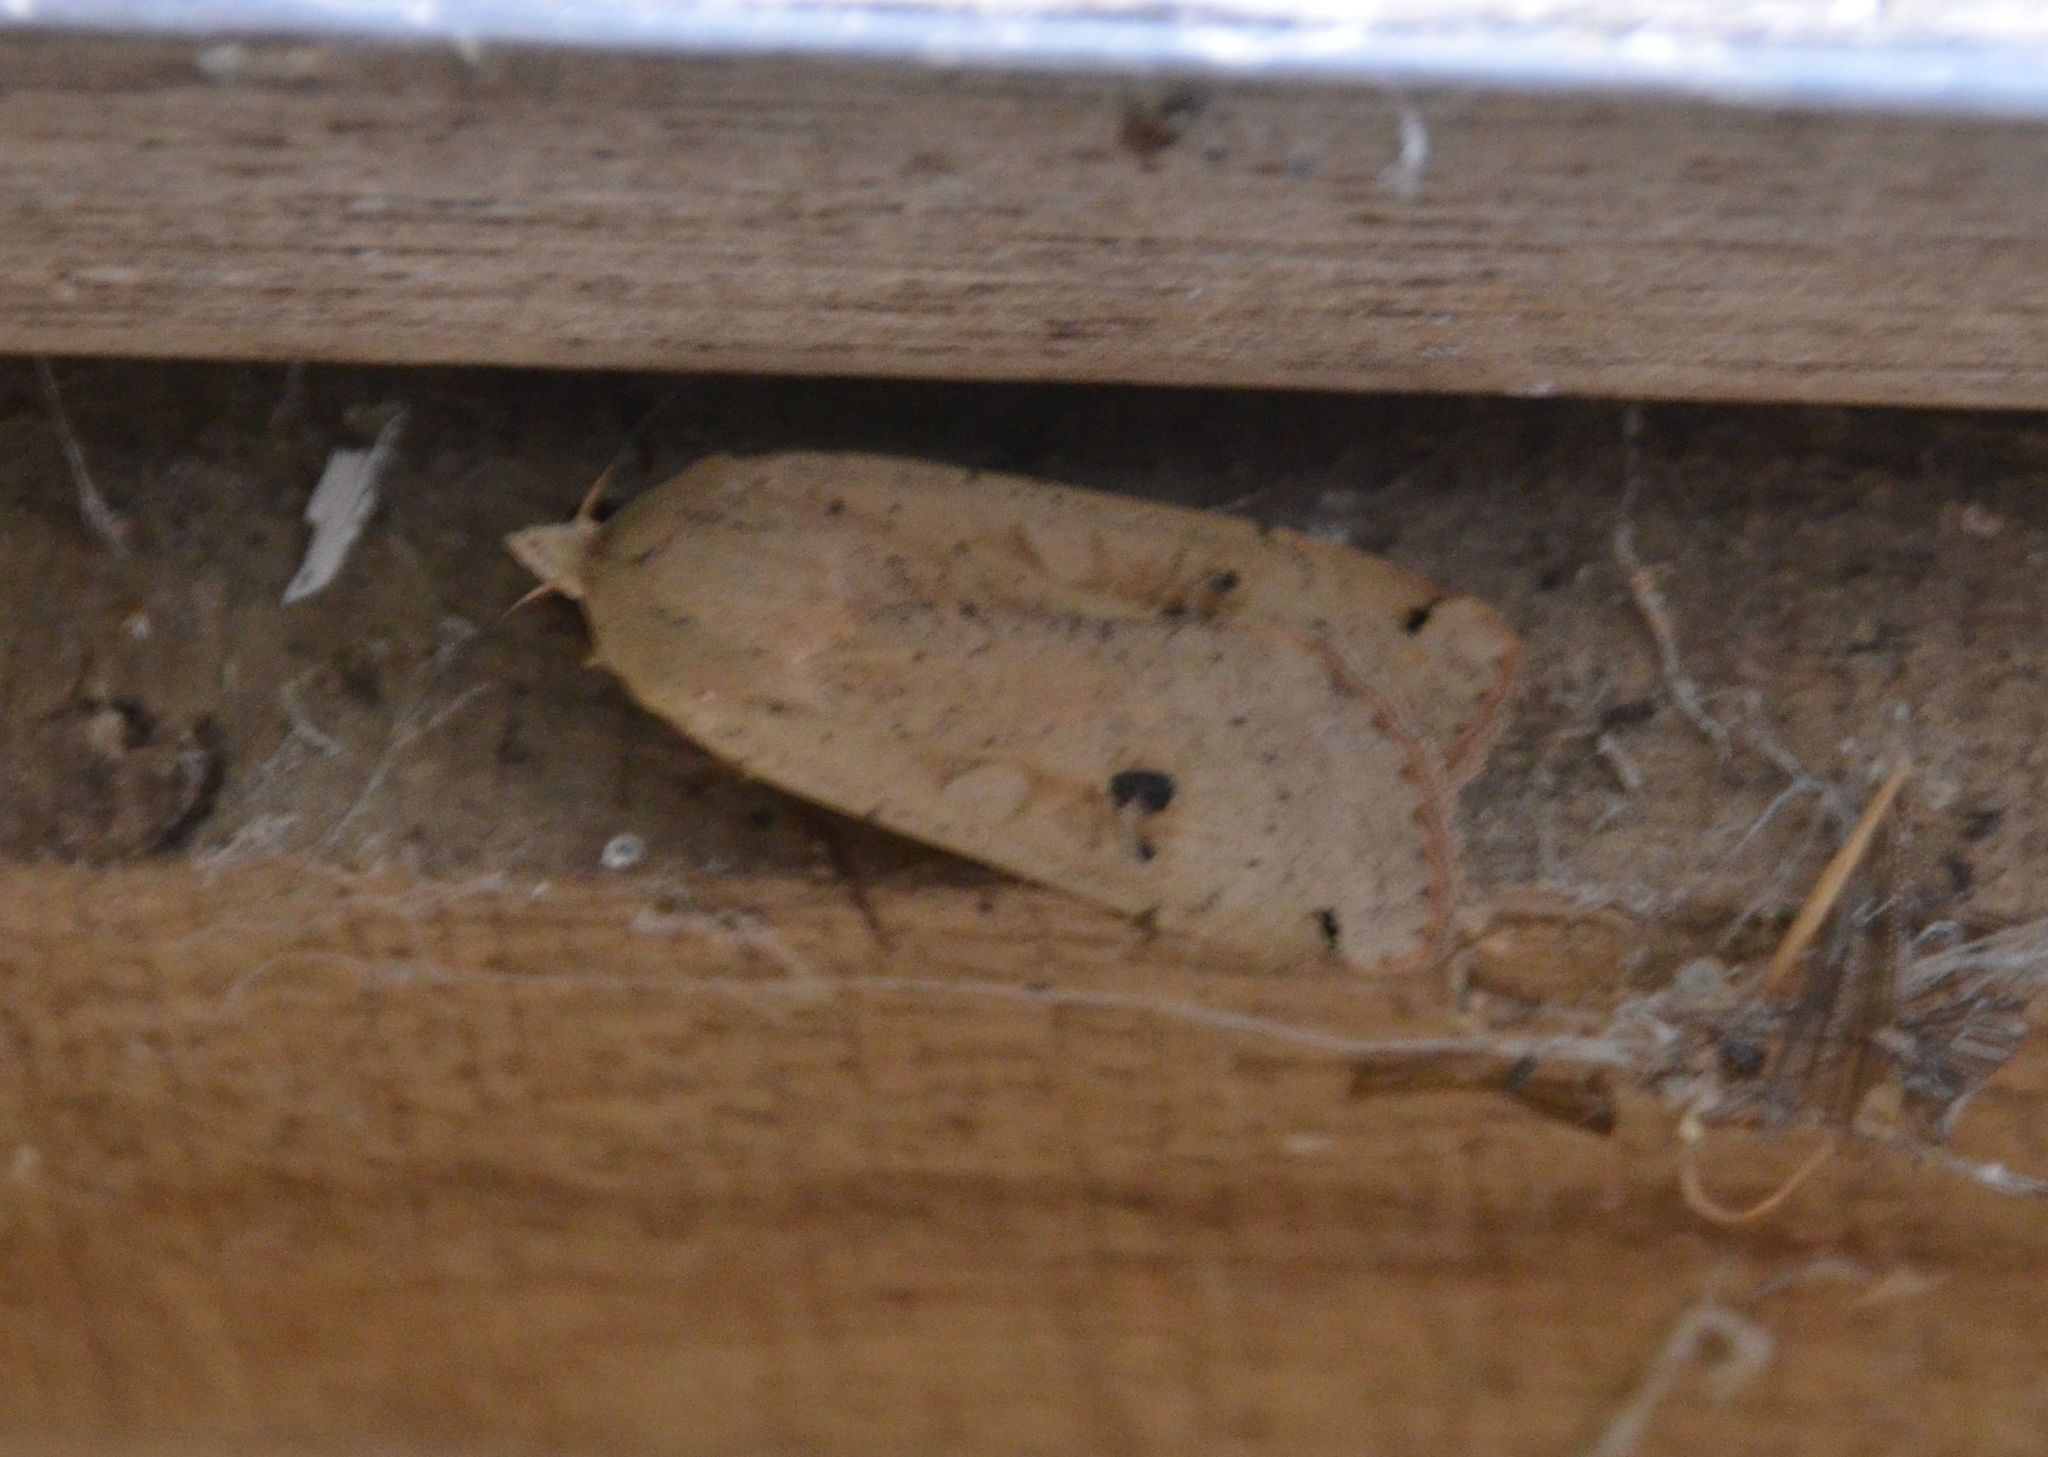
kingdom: Animalia
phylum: Arthropoda
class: Insecta
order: Lepidoptera
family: Noctuidae
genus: Noctua
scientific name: Noctua pronuba
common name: Large yellow underwing
